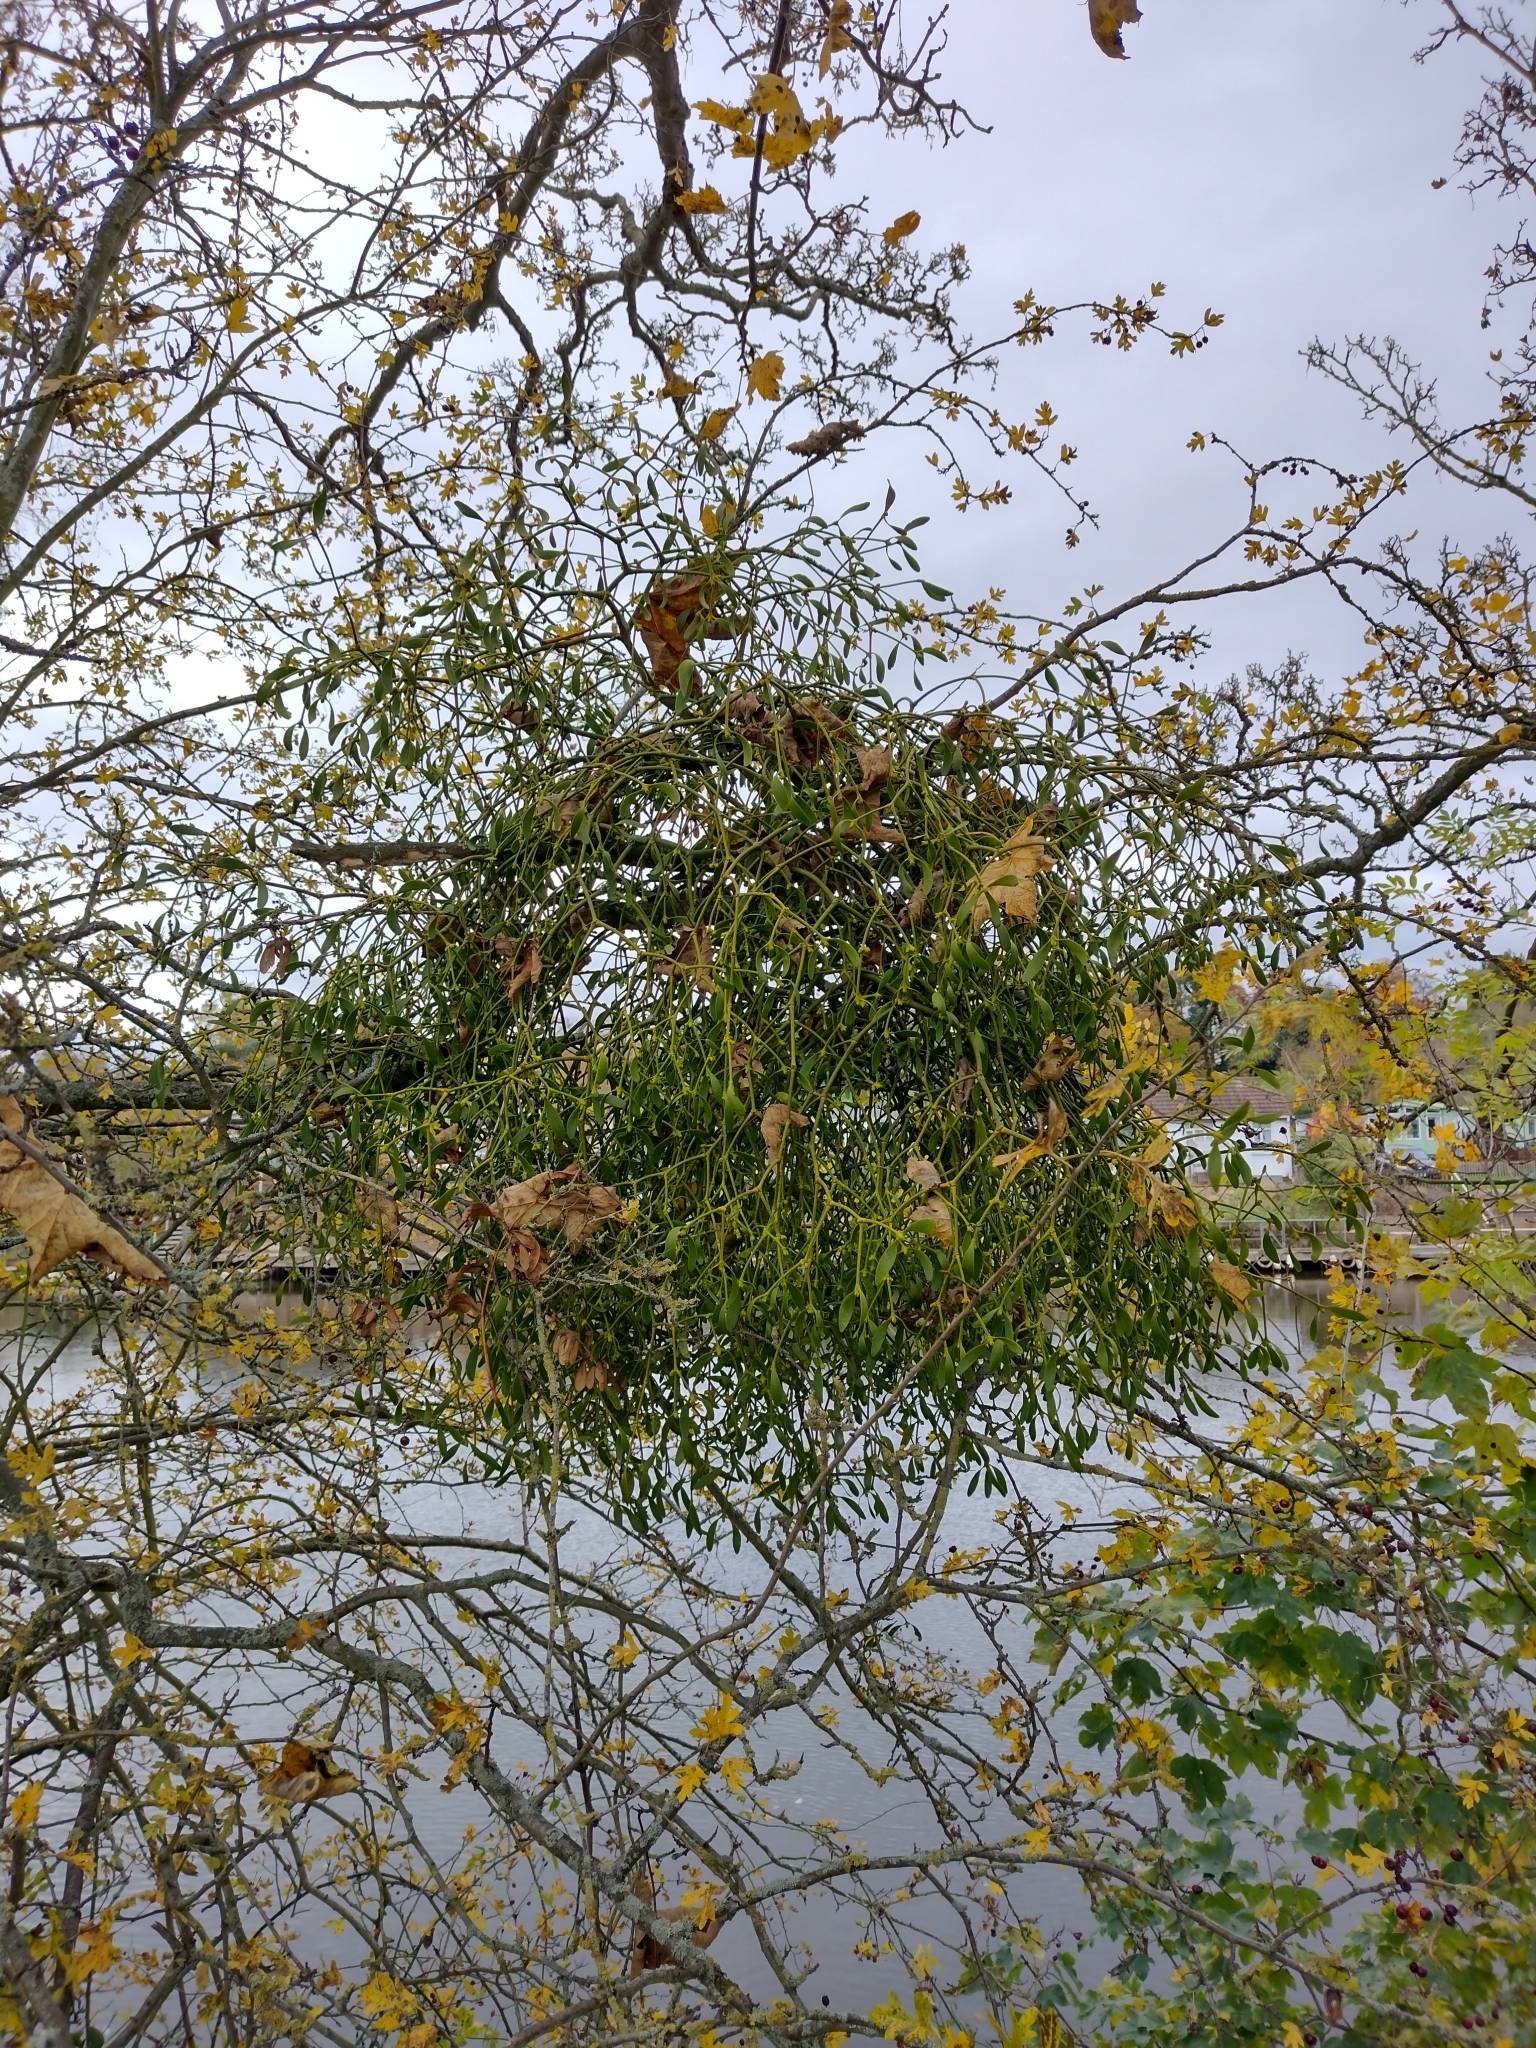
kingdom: Plantae
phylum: Tracheophyta
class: Magnoliopsida
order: Santalales
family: Viscaceae
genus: Viscum
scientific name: Viscum album
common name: Mistletoe
